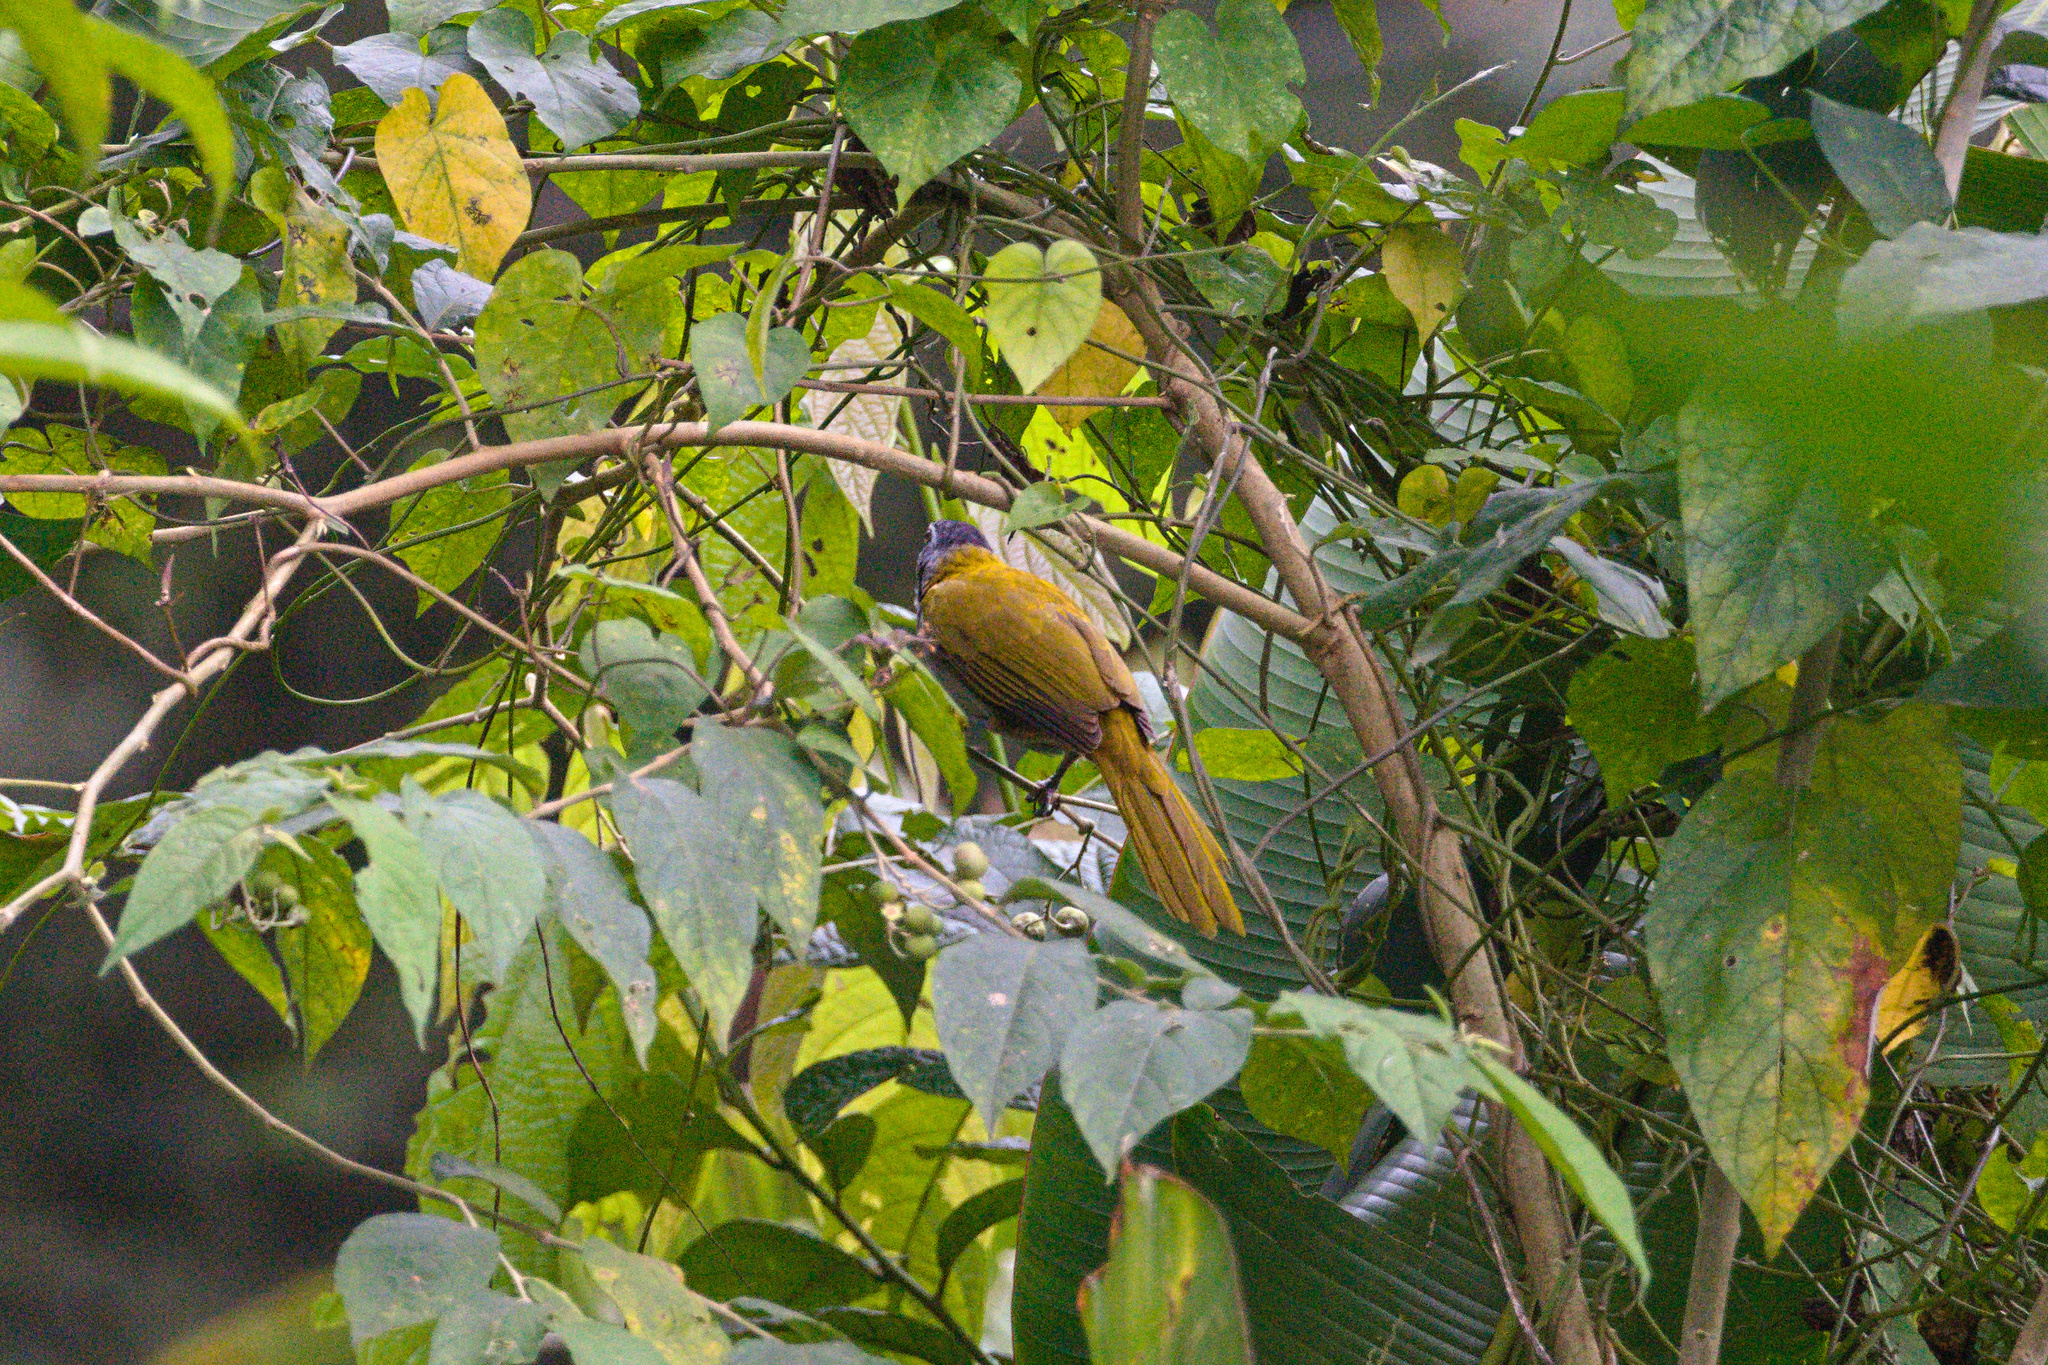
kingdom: Animalia
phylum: Chordata
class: Aves
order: Passeriformes
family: Thraupidae
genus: Saltator
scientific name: Saltator atriceps
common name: Black-headed saltator
